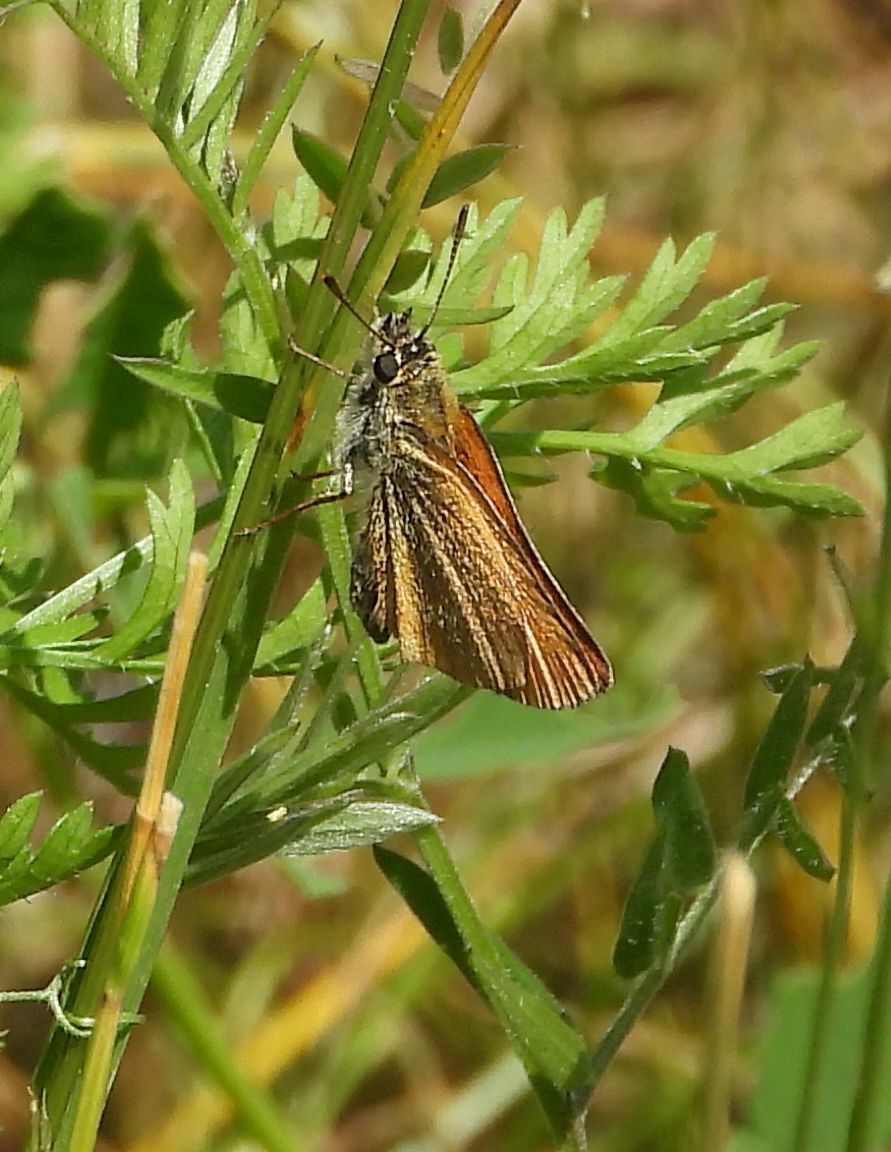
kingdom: Animalia
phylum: Arthropoda
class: Insecta
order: Lepidoptera
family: Hesperiidae
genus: Thymelicus
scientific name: Thymelicus lineola
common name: Essex skipper
